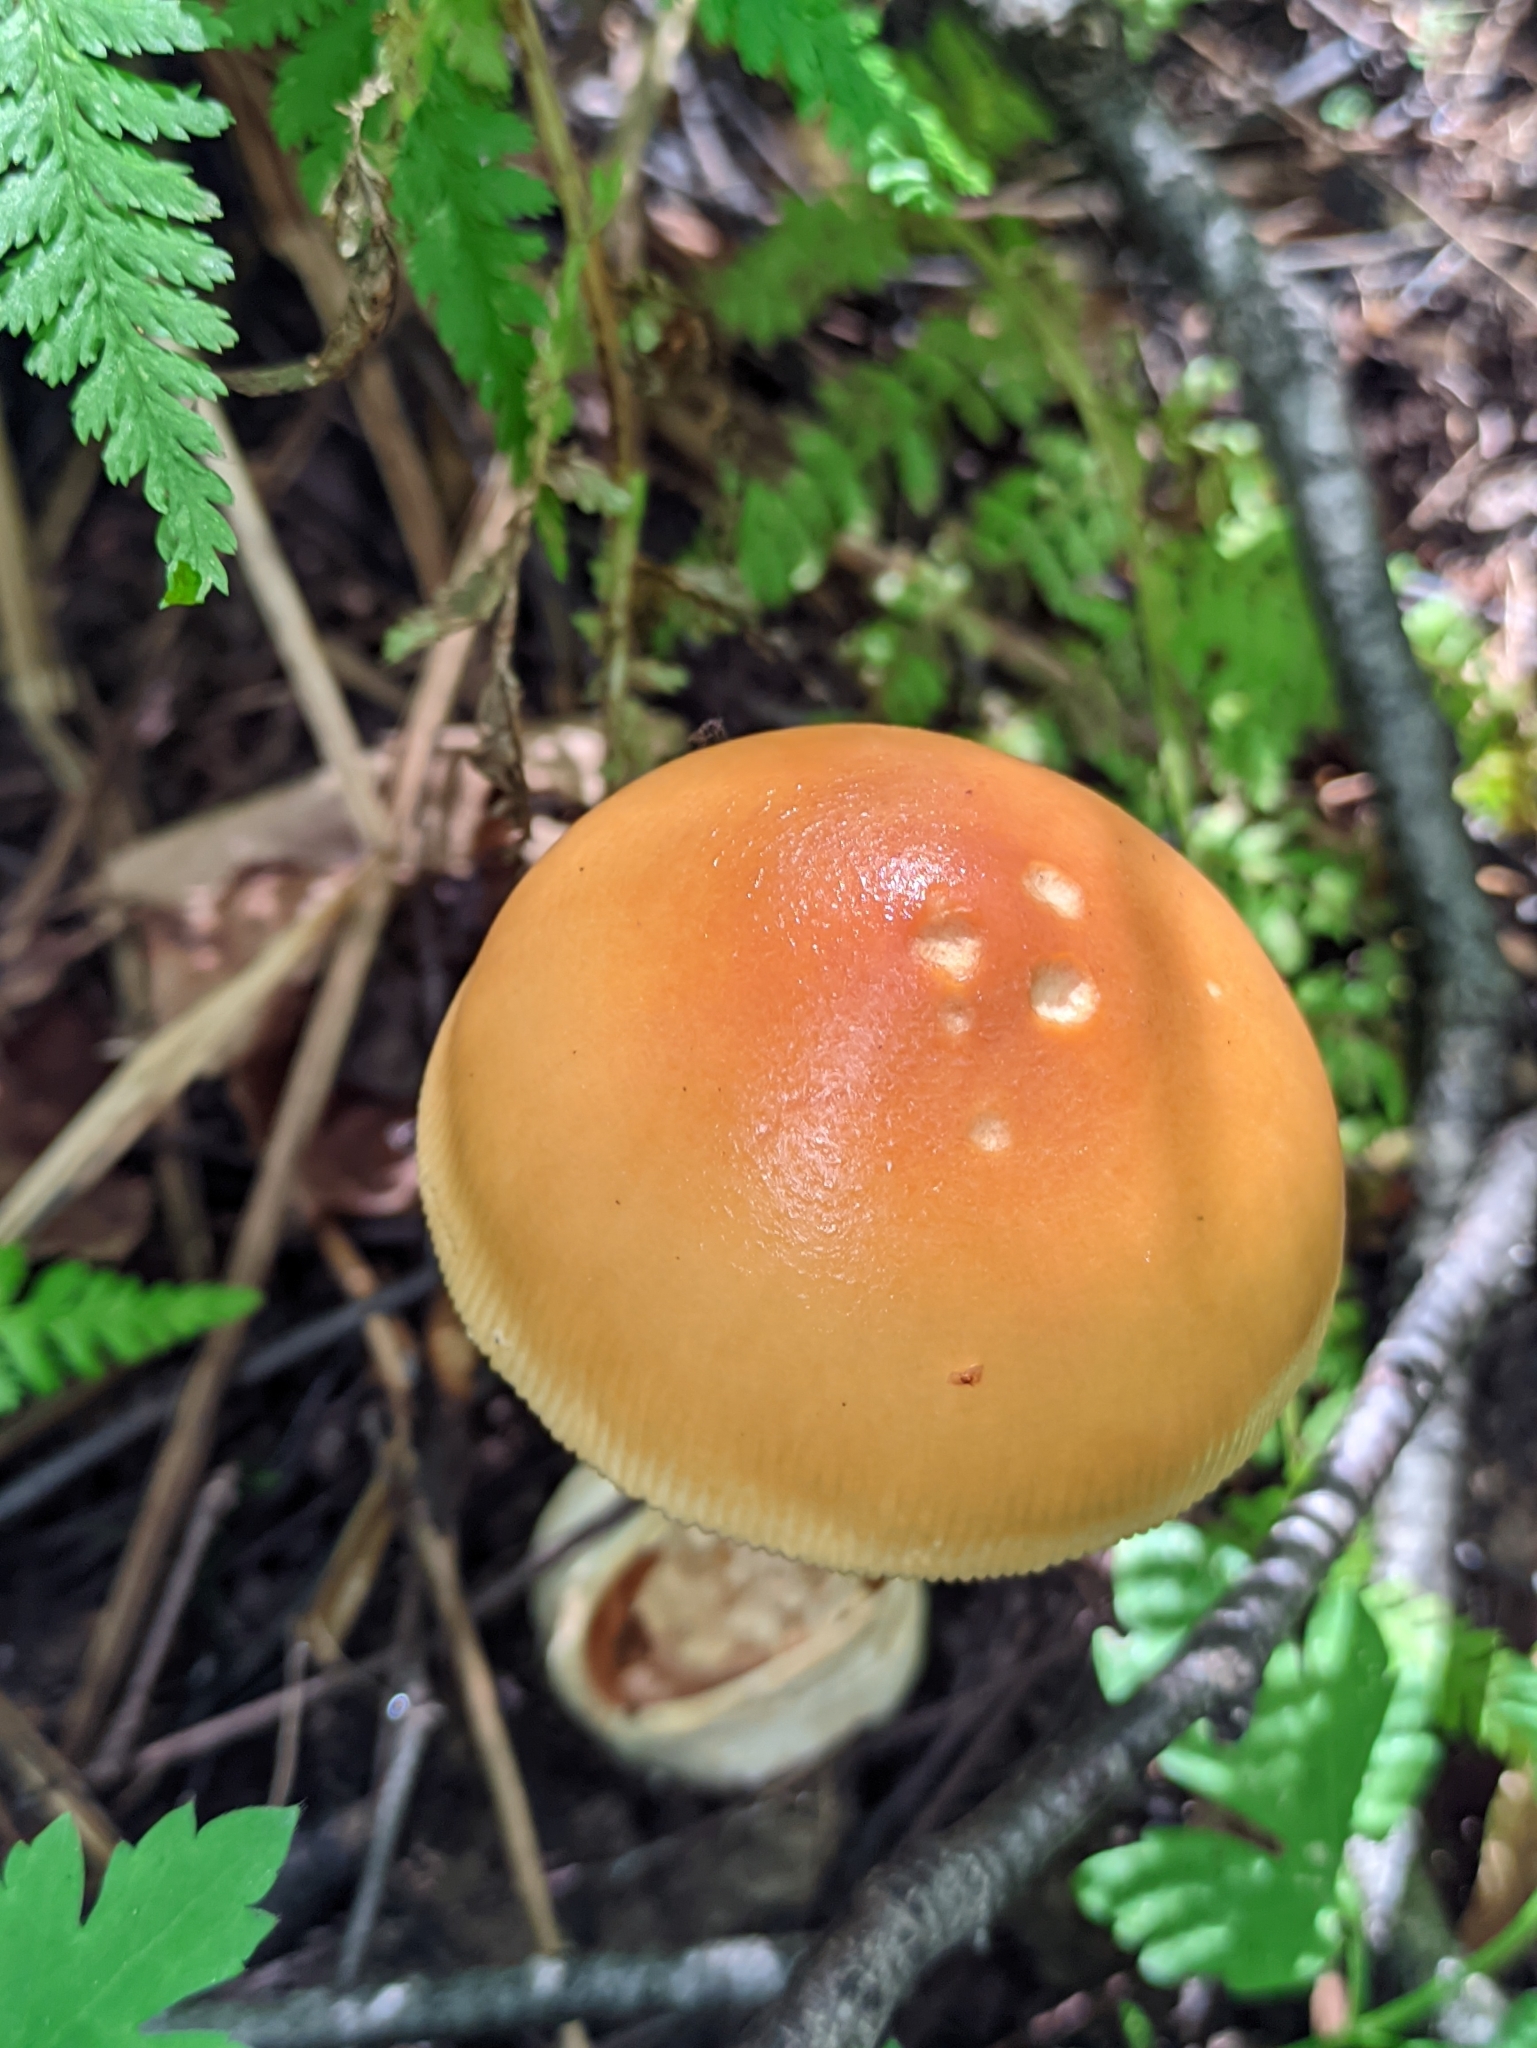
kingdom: Fungi
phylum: Basidiomycota
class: Agaricomycetes
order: Agaricales
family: Amanitaceae
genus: Amanita
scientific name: Amanita crocea
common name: Orange grisette
